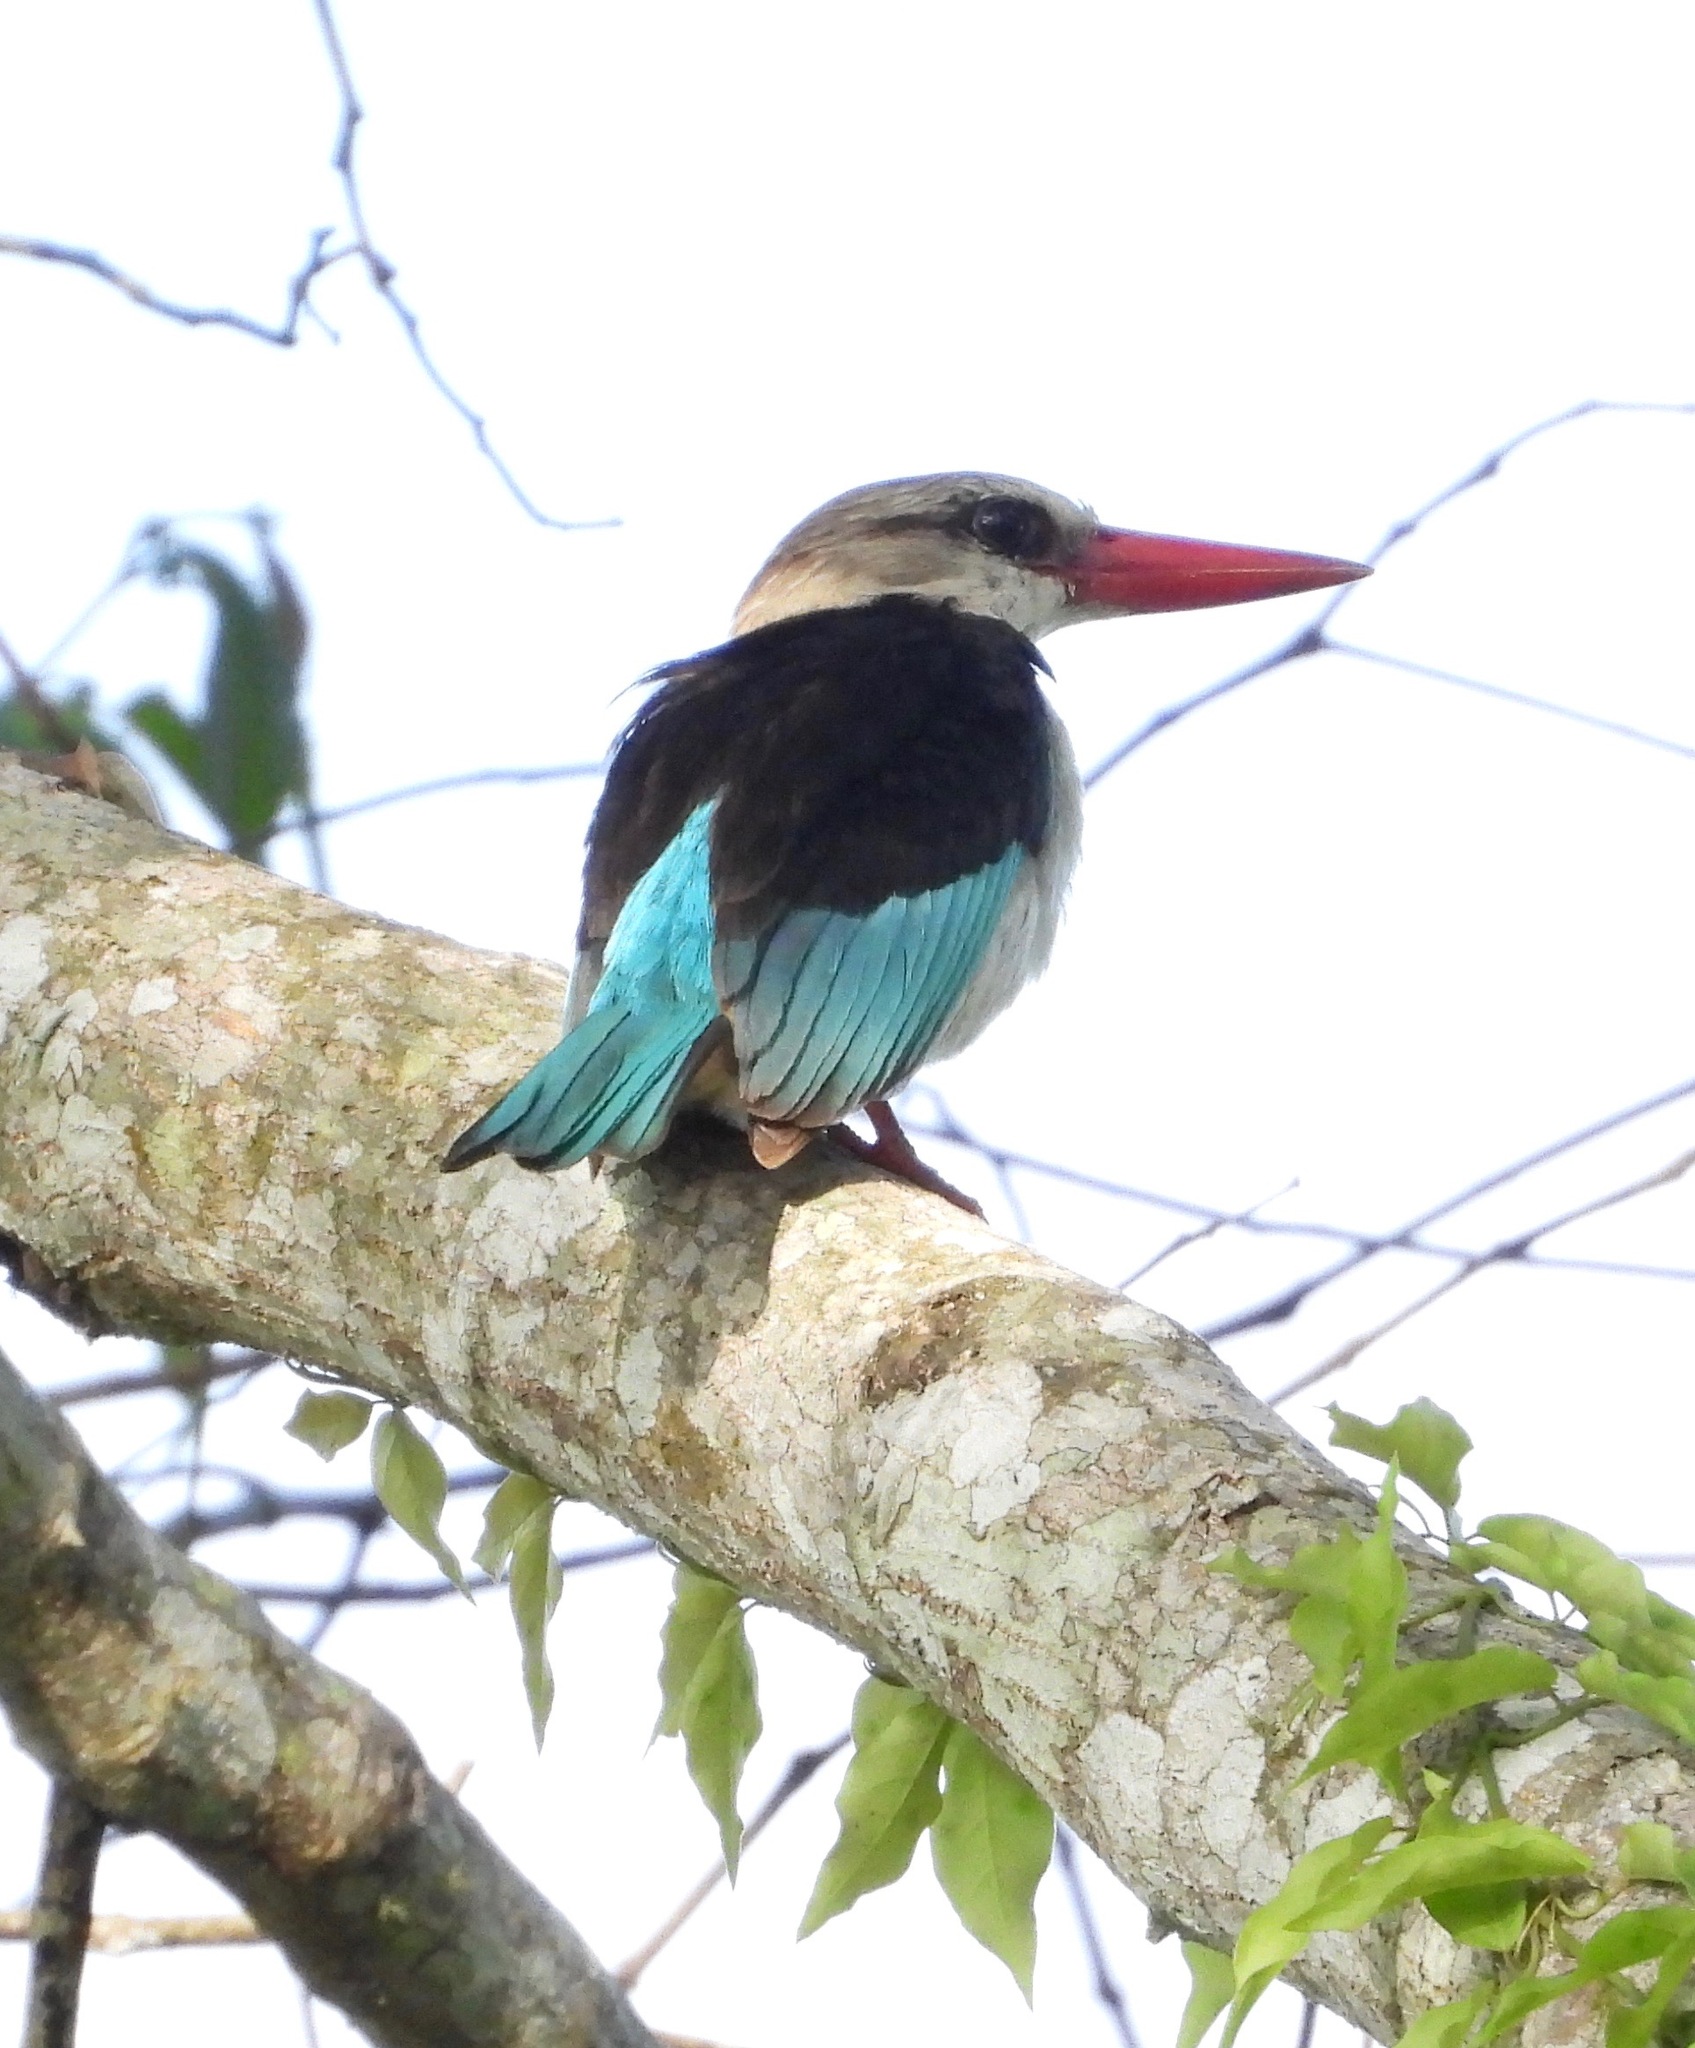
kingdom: Animalia
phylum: Chordata
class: Aves
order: Coraciiformes
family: Alcedinidae
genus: Halcyon
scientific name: Halcyon albiventris
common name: Brown-hooded kingfisher
